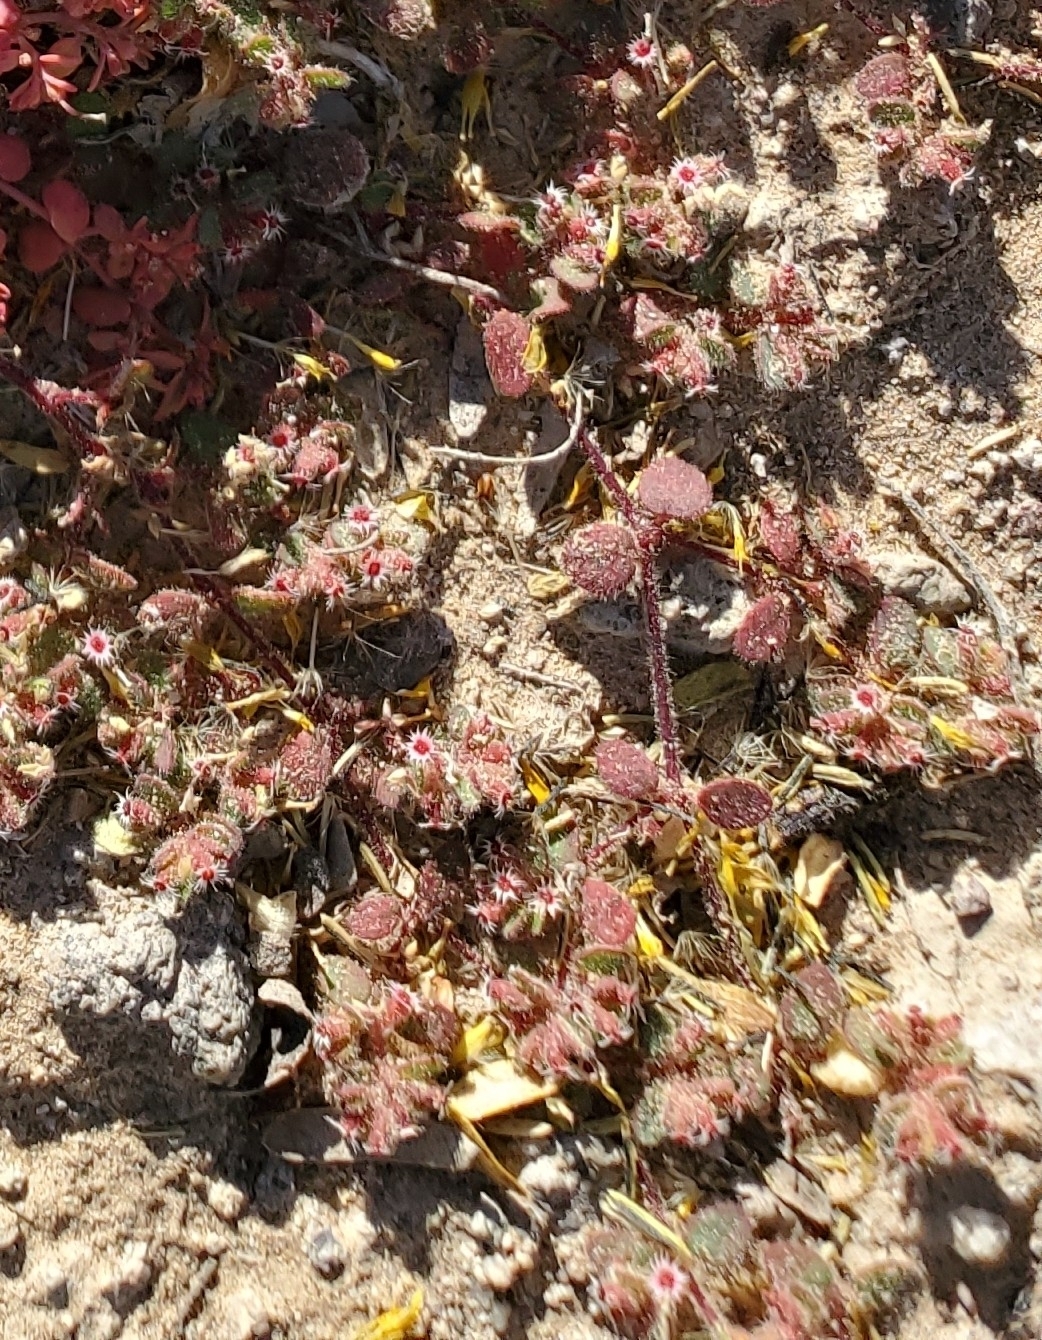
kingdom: Plantae
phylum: Tracheophyta
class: Magnoliopsida
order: Malpighiales
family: Euphorbiaceae
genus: Euphorbia
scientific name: Euphorbia setiloba
